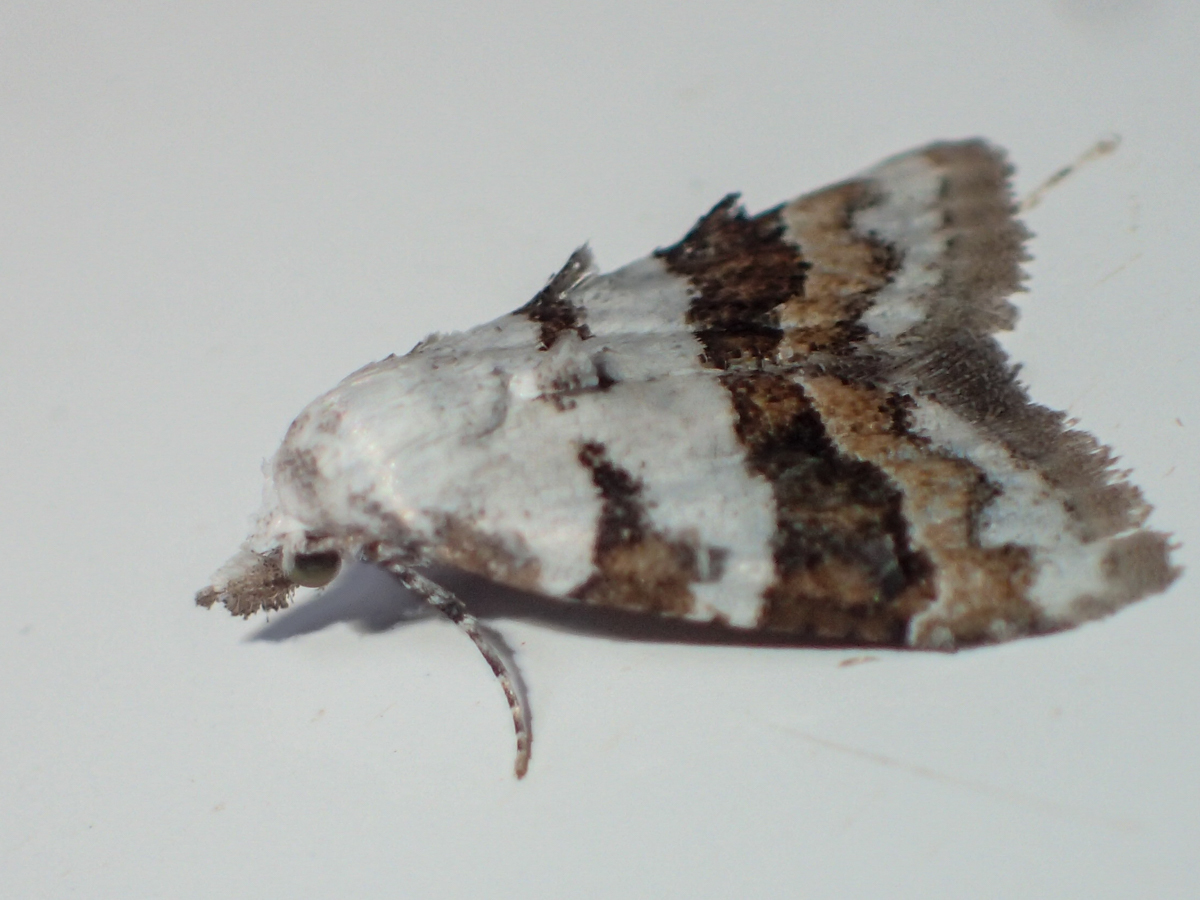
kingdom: Animalia
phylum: Arthropoda
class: Insecta
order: Lepidoptera
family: Nolidae
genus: Nola
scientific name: Nola lucidalis
